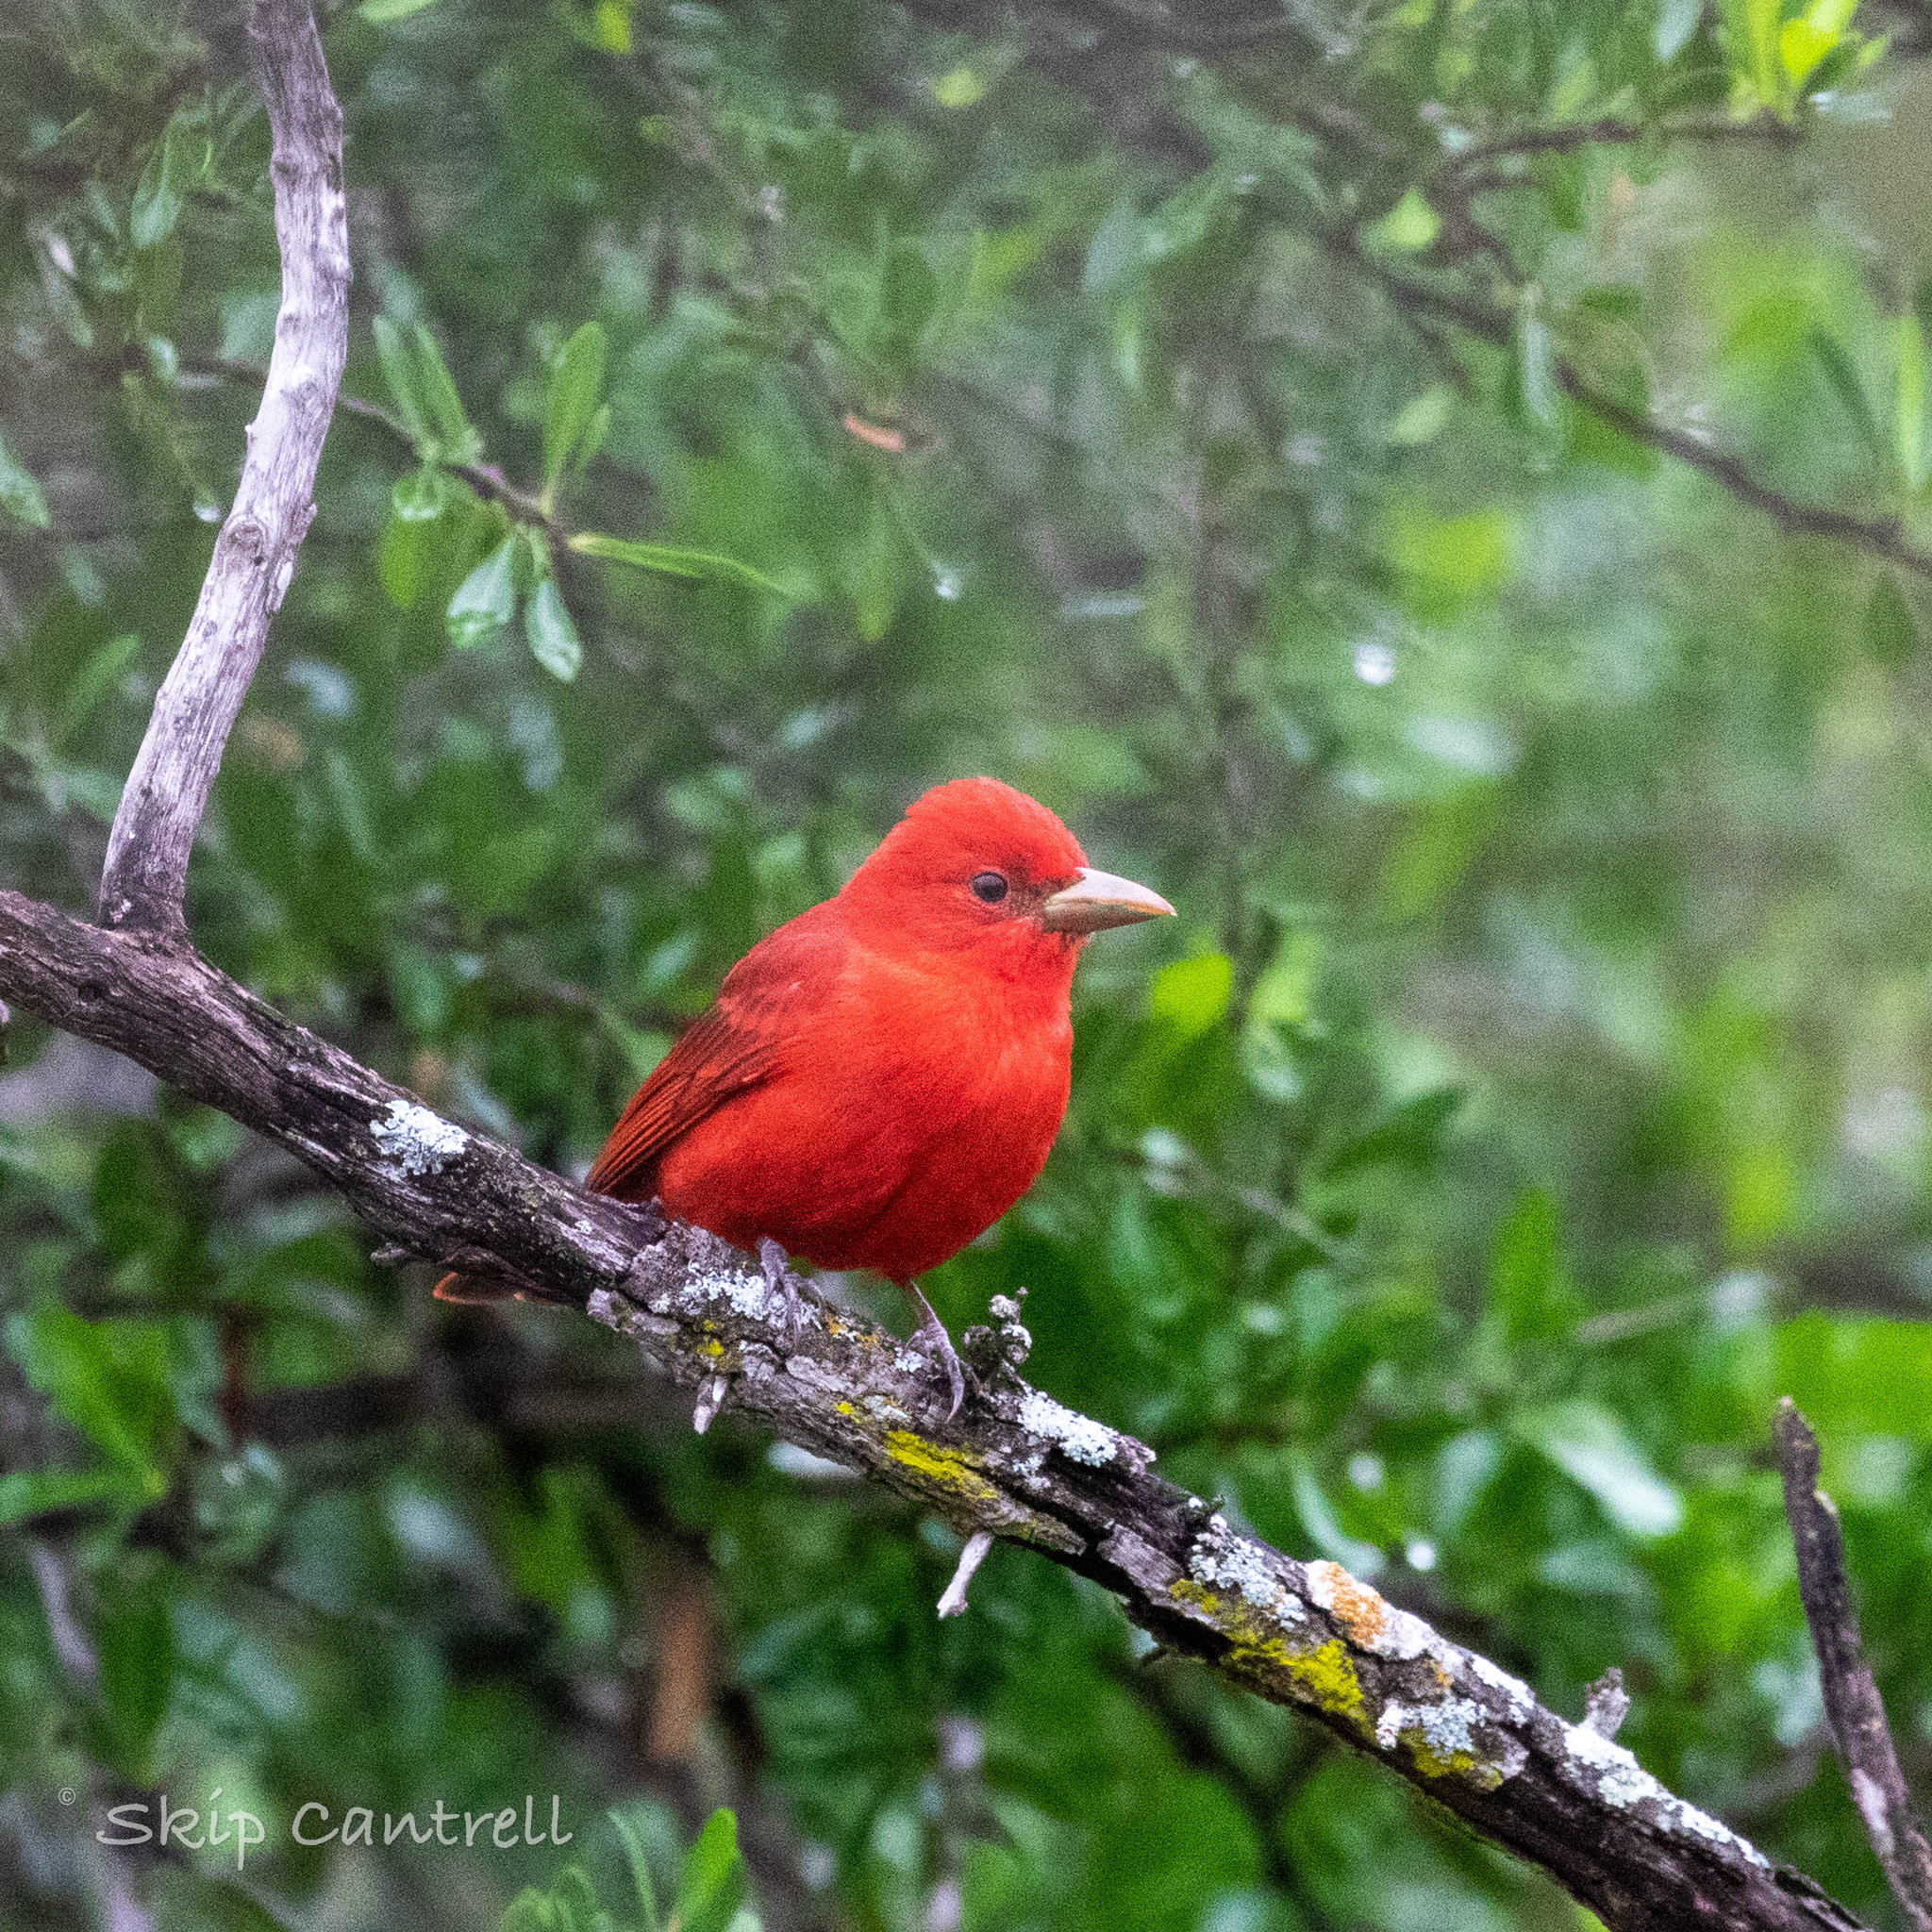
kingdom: Animalia
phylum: Chordata
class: Aves
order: Passeriformes
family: Cardinalidae
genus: Piranga
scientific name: Piranga rubra
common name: Summer tanager
